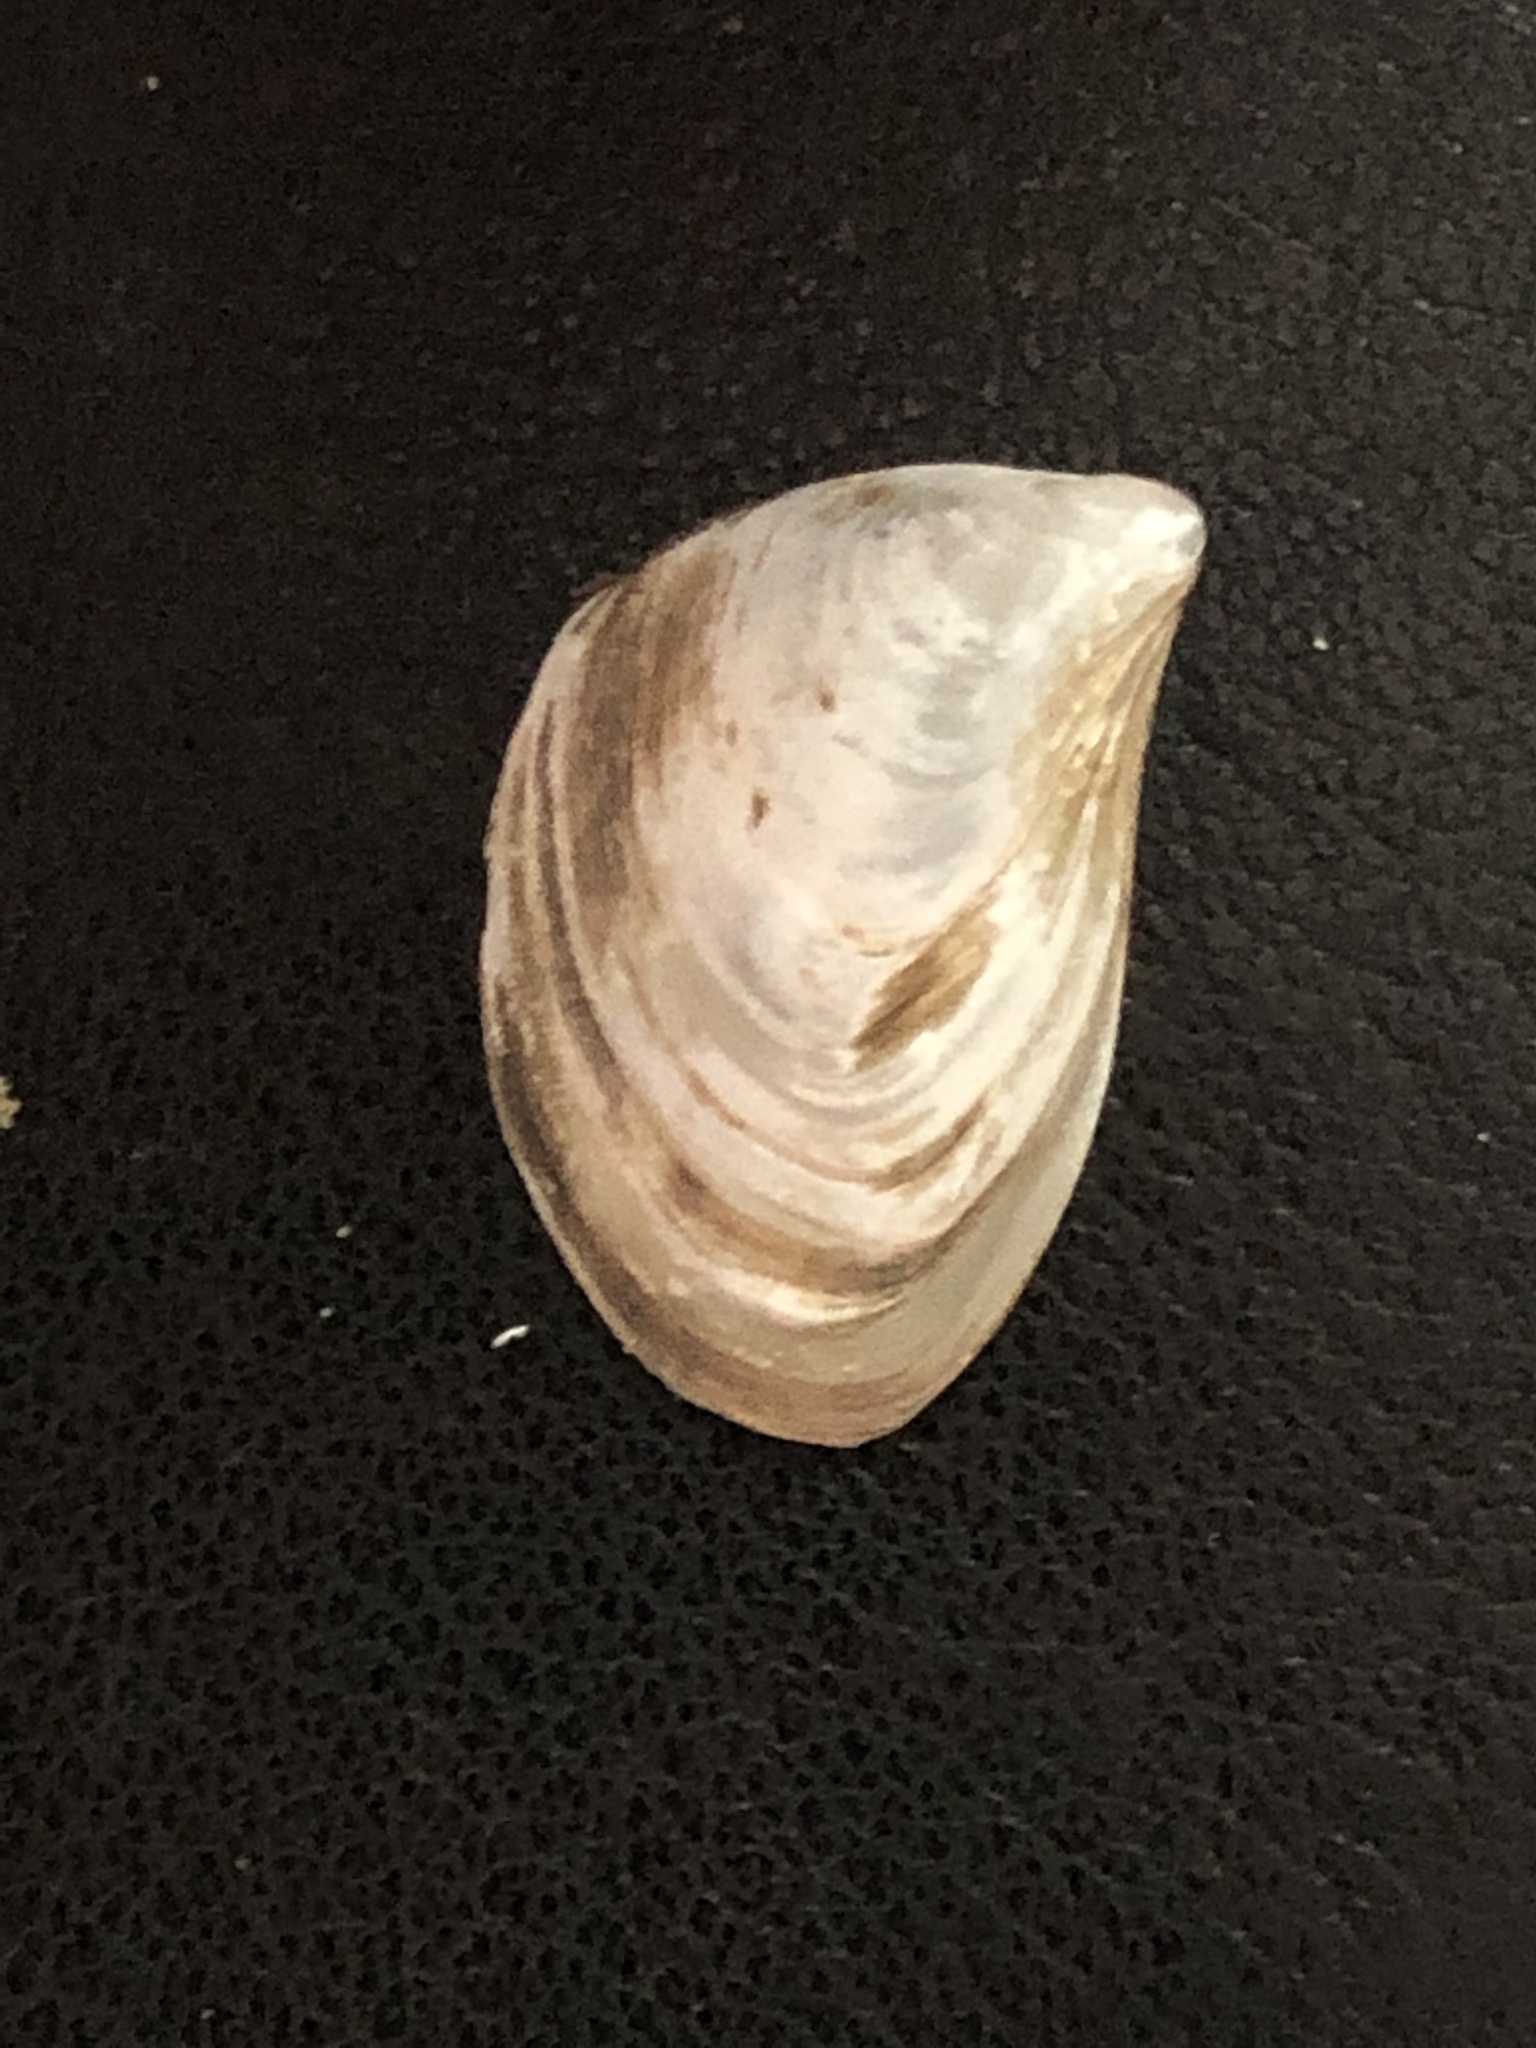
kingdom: Animalia
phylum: Mollusca
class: Bivalvia
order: Myida
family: Dreissenidae
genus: Dreissena
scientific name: Dreissena bugensis
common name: Quagga mussel
